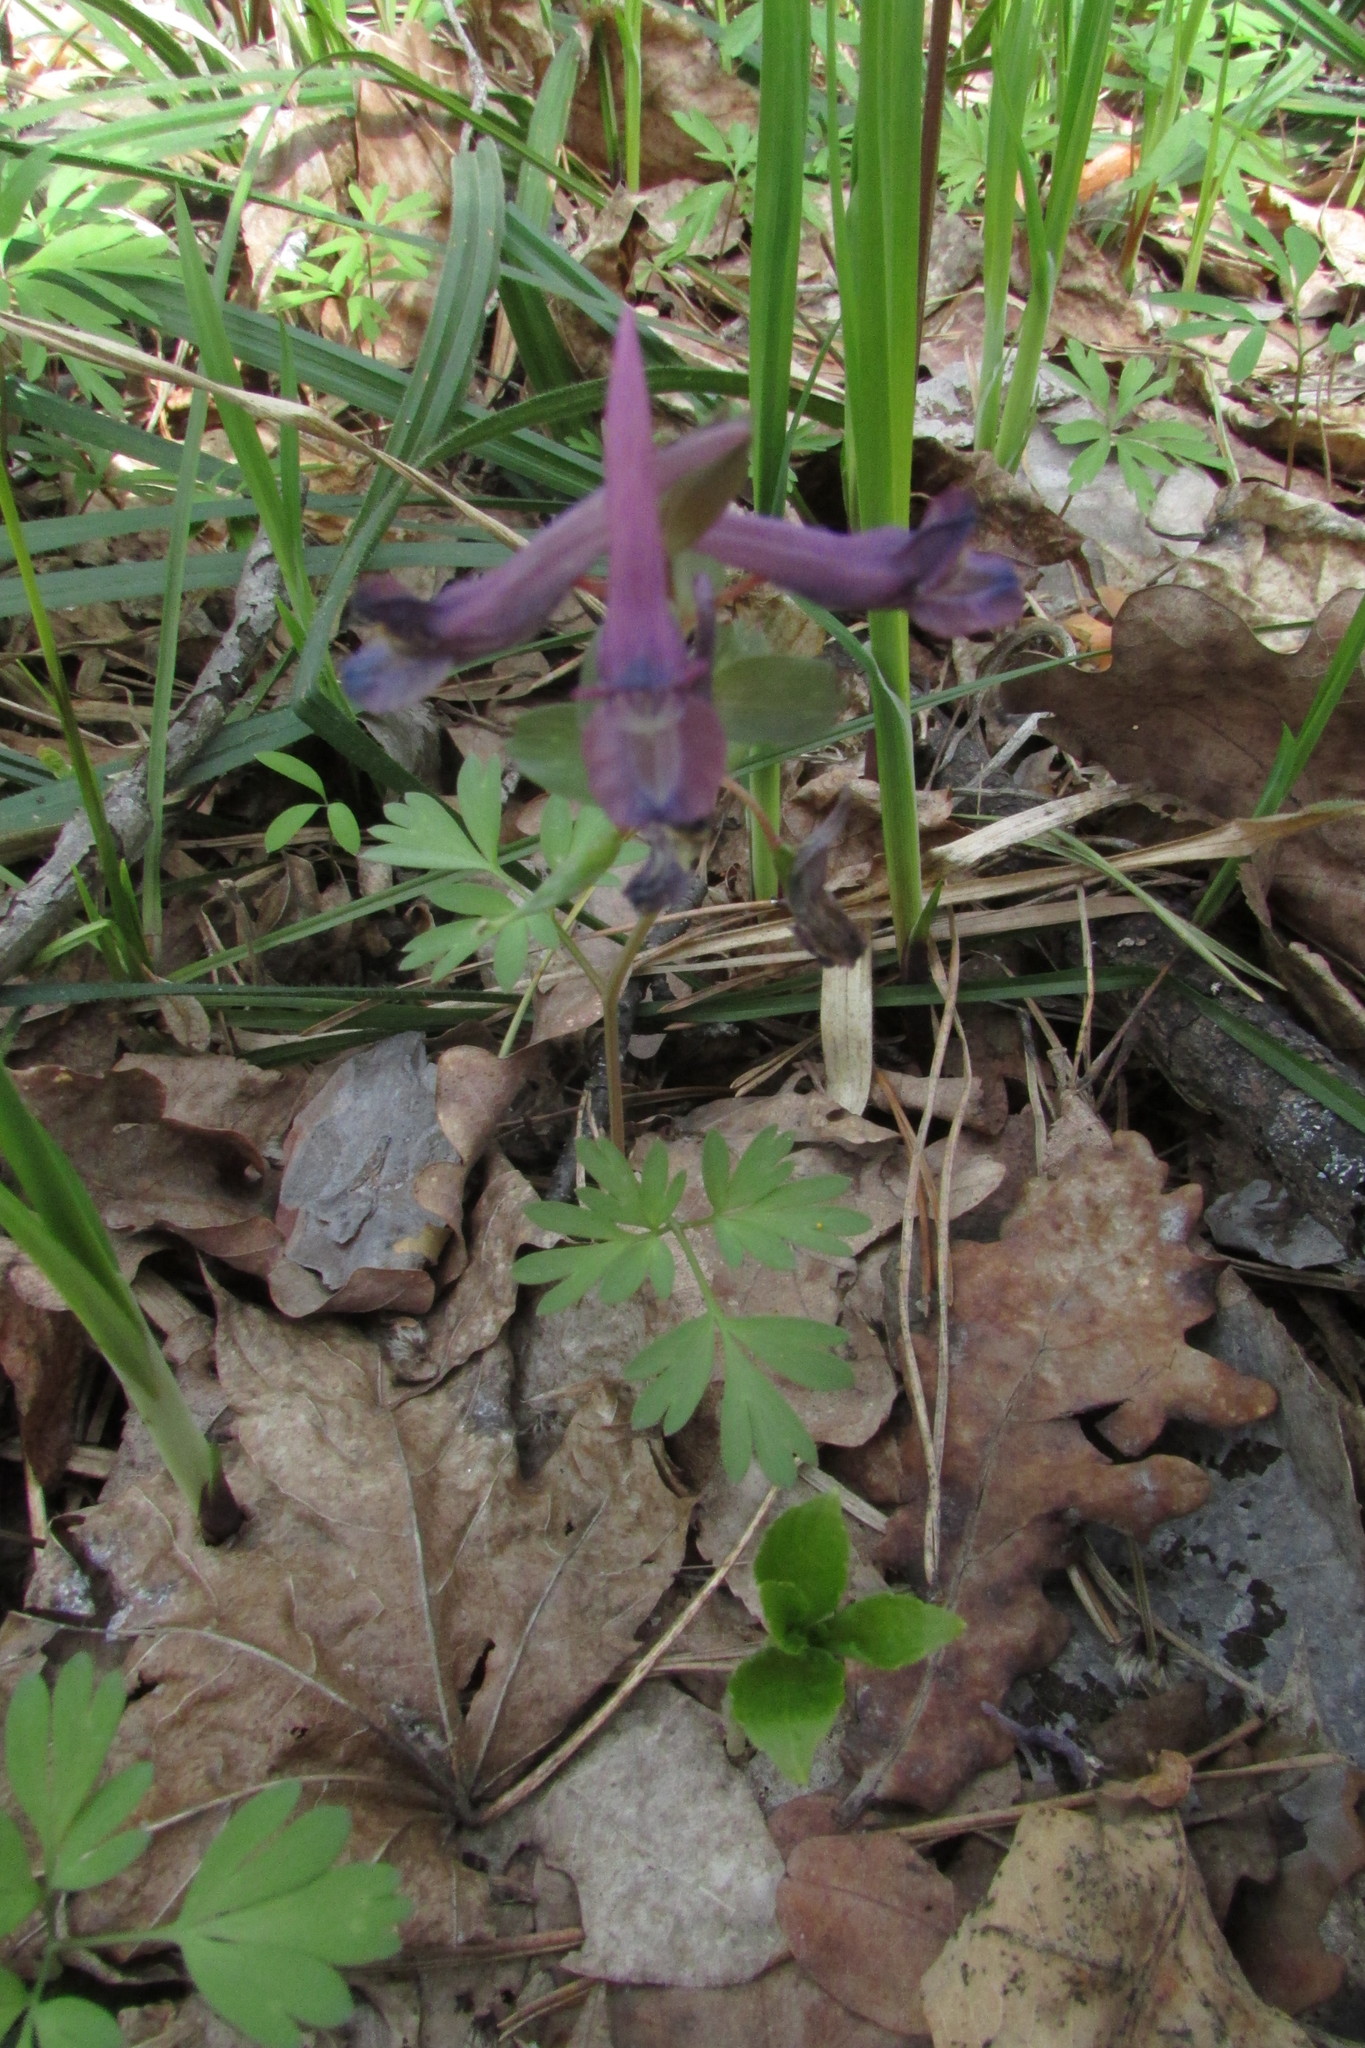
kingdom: Plantae
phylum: Tracheophyta
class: Magnoliopsida
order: Ranunculales
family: Papaveraceae
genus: Corydalis
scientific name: Corydalis solida
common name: Bird-in-a-bush
